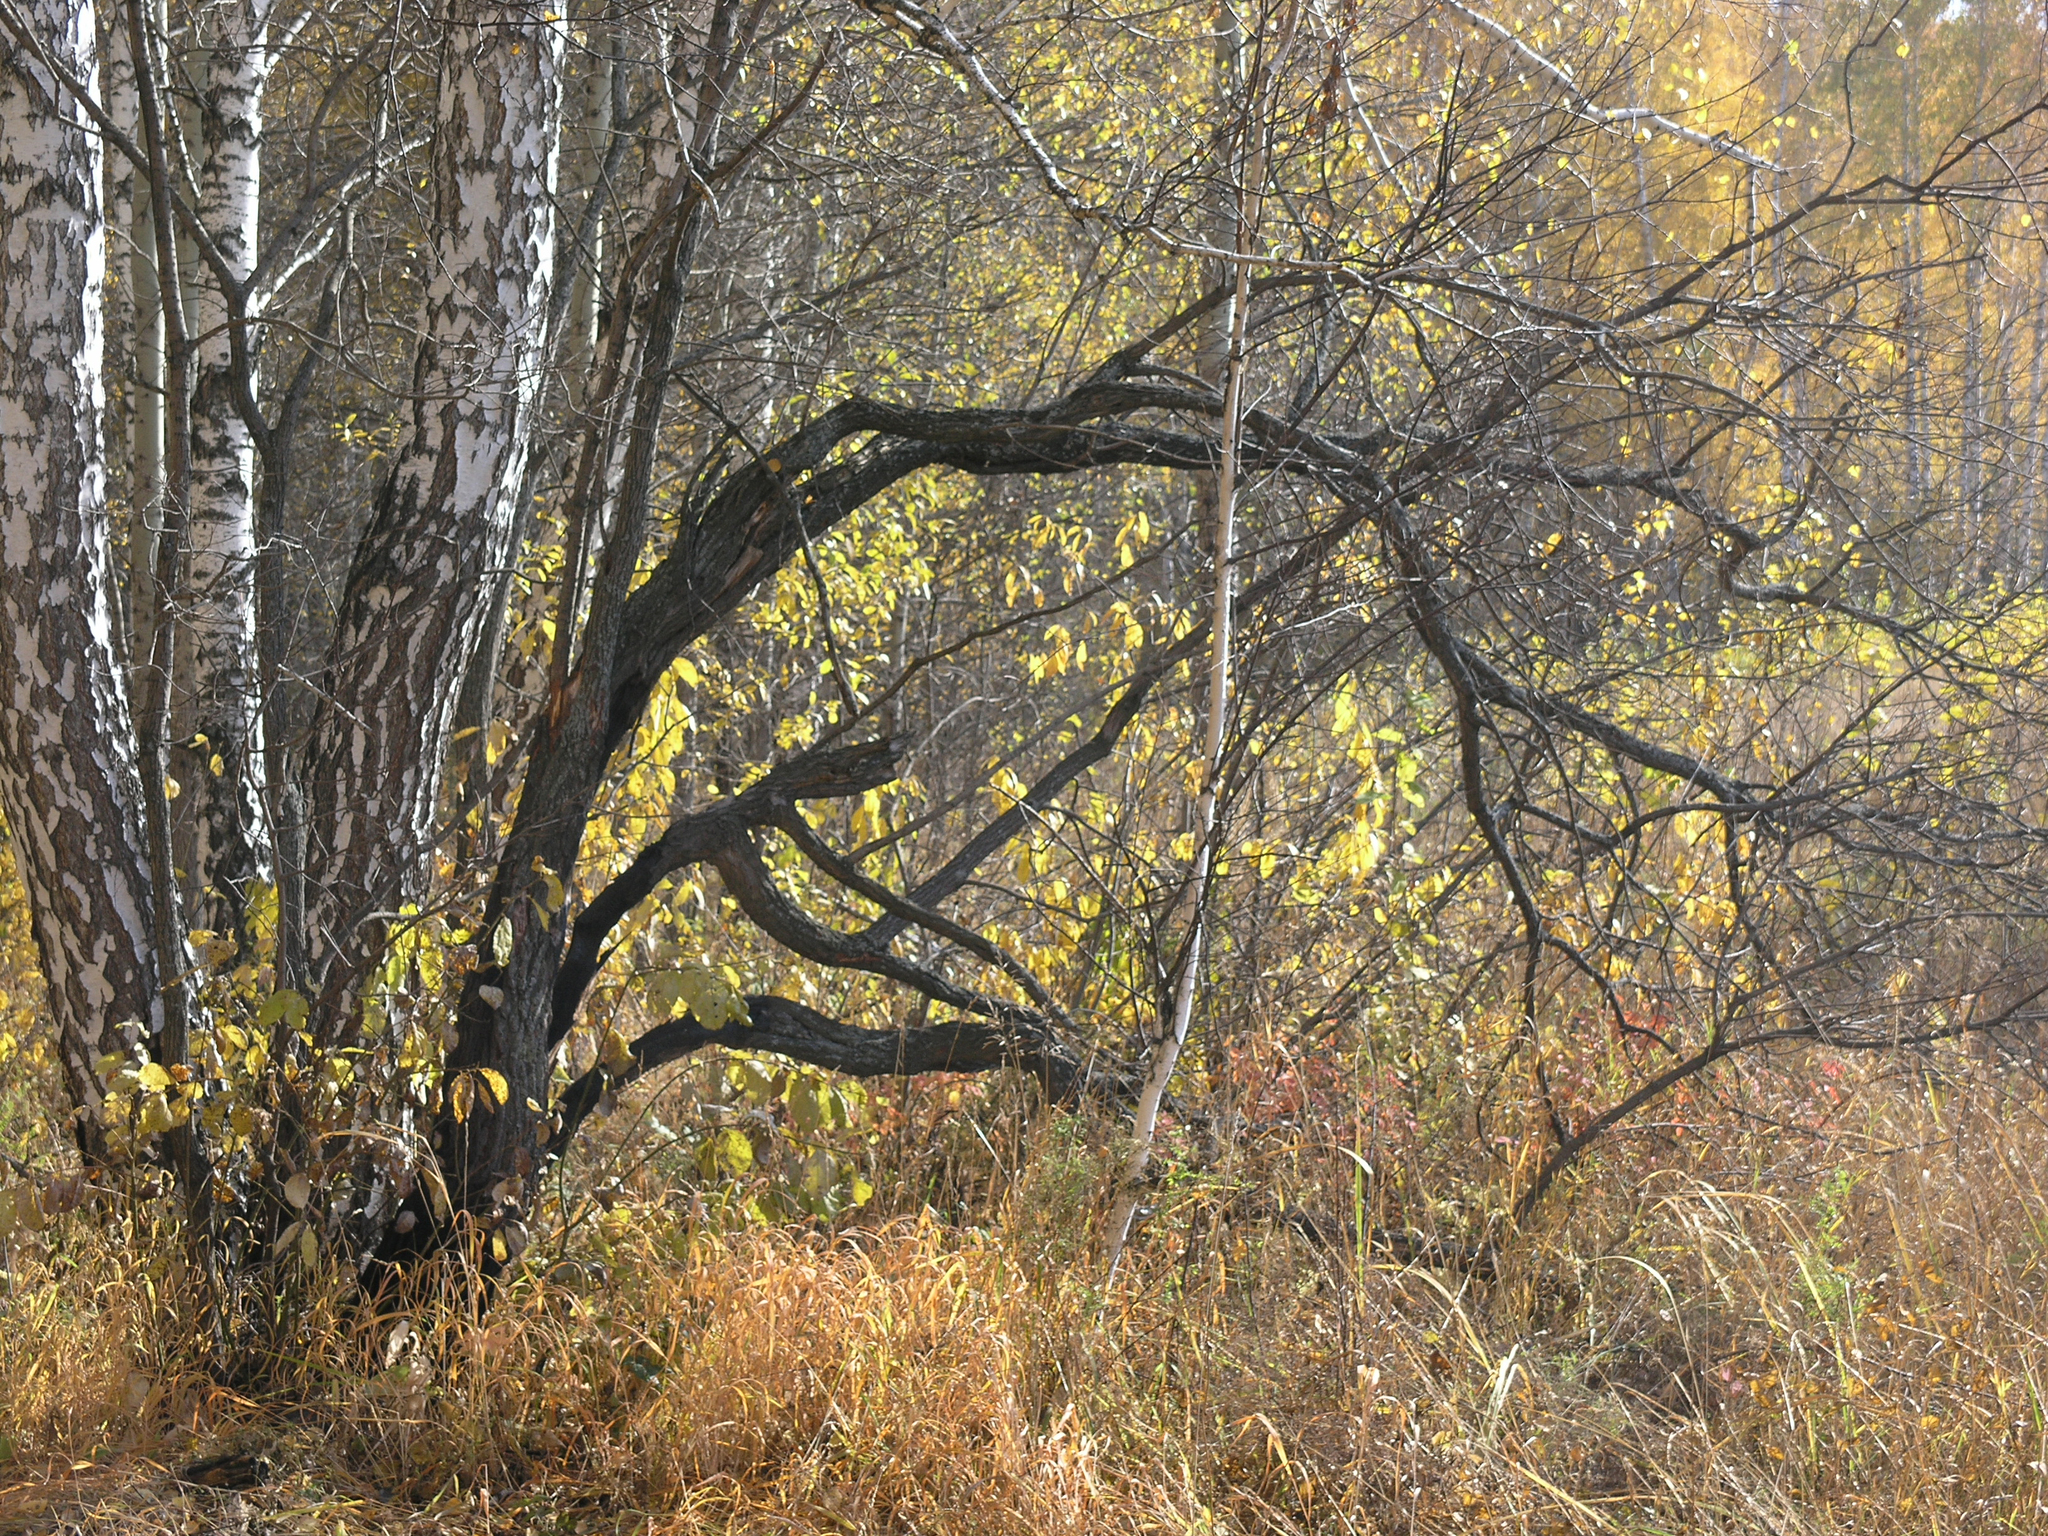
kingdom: Plantae
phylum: Tracheophyta
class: Magnoliopsida
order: Malpighiales
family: Salicaceae
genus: Salix
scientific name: Salix caprea
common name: Goat willow
